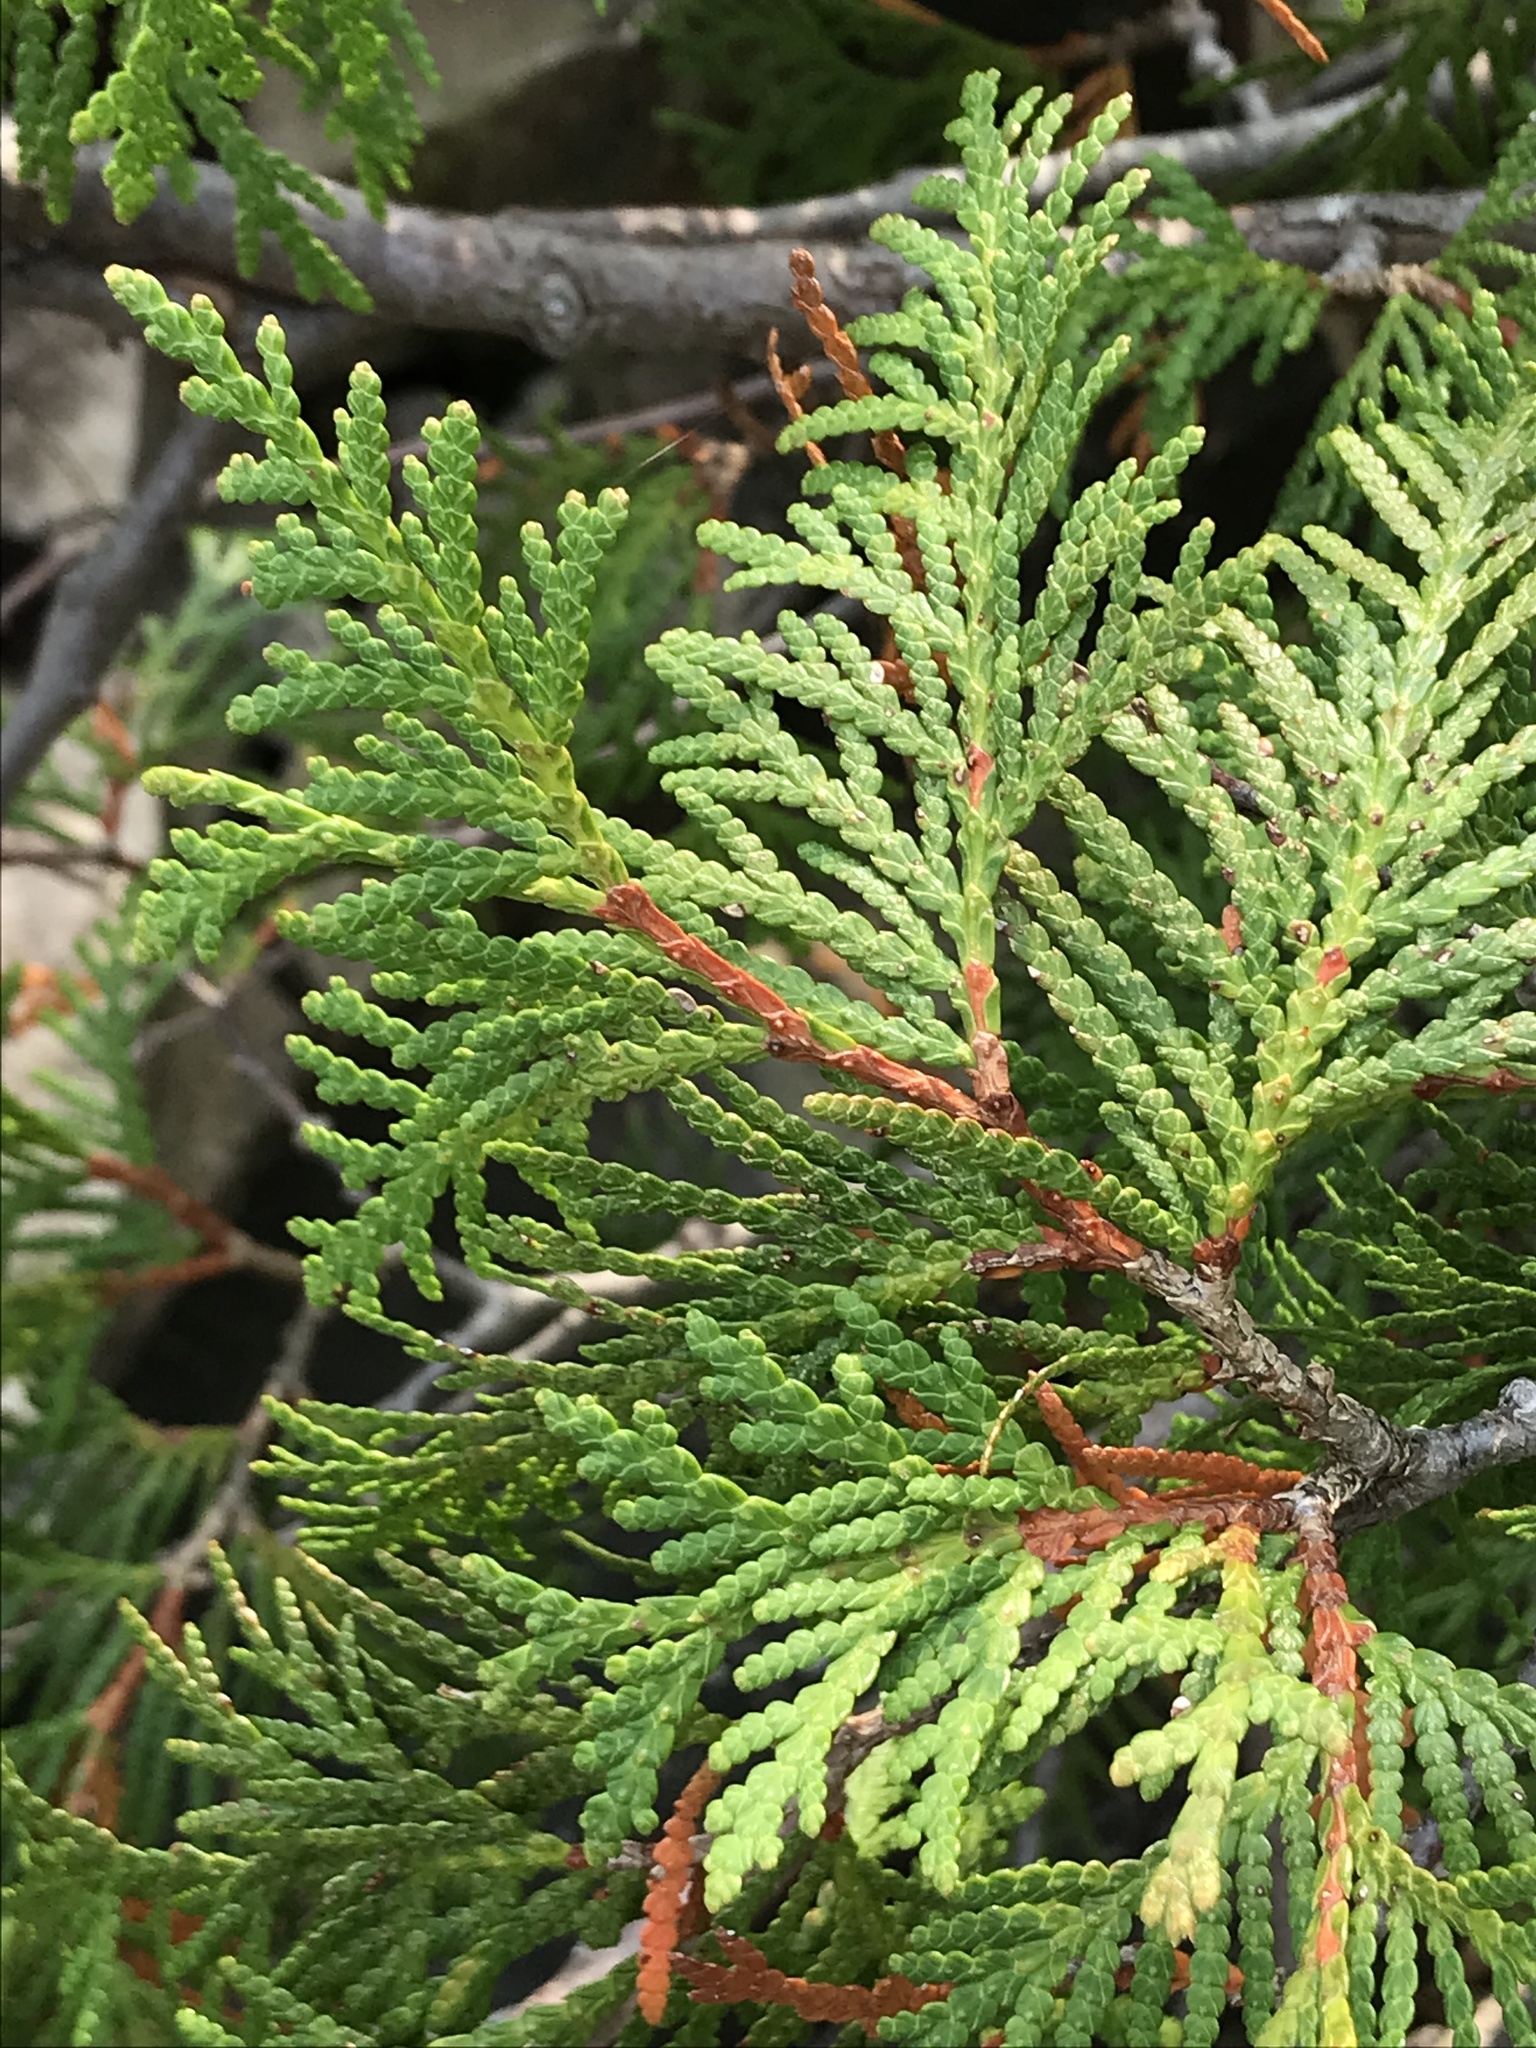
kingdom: Plantae
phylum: Tracheophyta
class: Pinopsida
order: Pinales
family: Cupressaceae
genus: Thuja
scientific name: Thuja occidentalis
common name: Northern white-cedar
